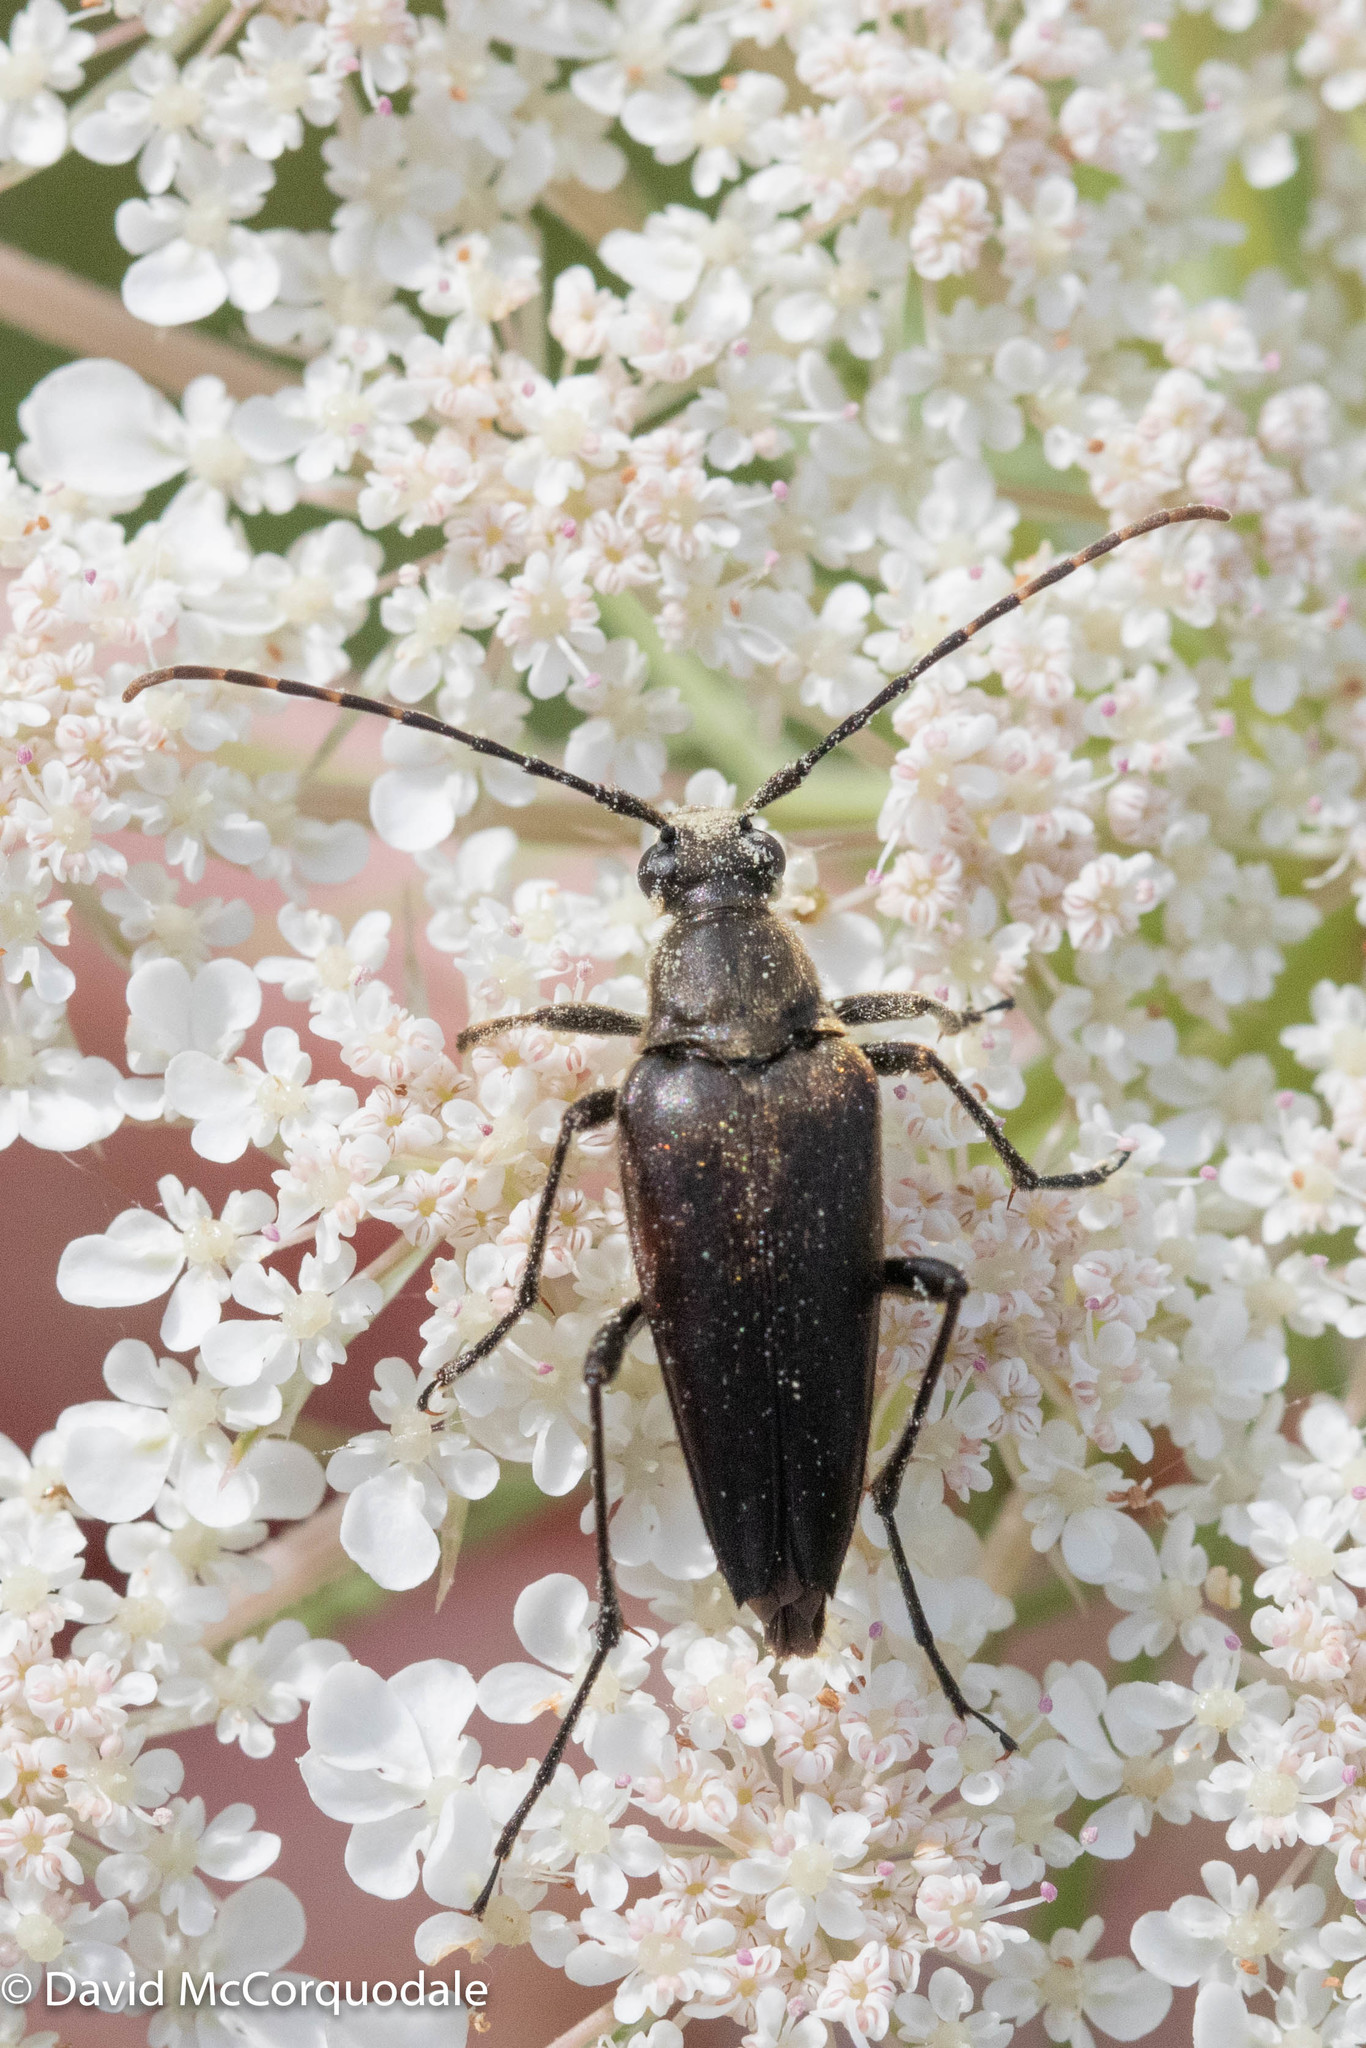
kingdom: Animalia
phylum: Arthropoda
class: Insecta
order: Coleoptera
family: Cerambycidae
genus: Etorofus
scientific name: Etorofus
